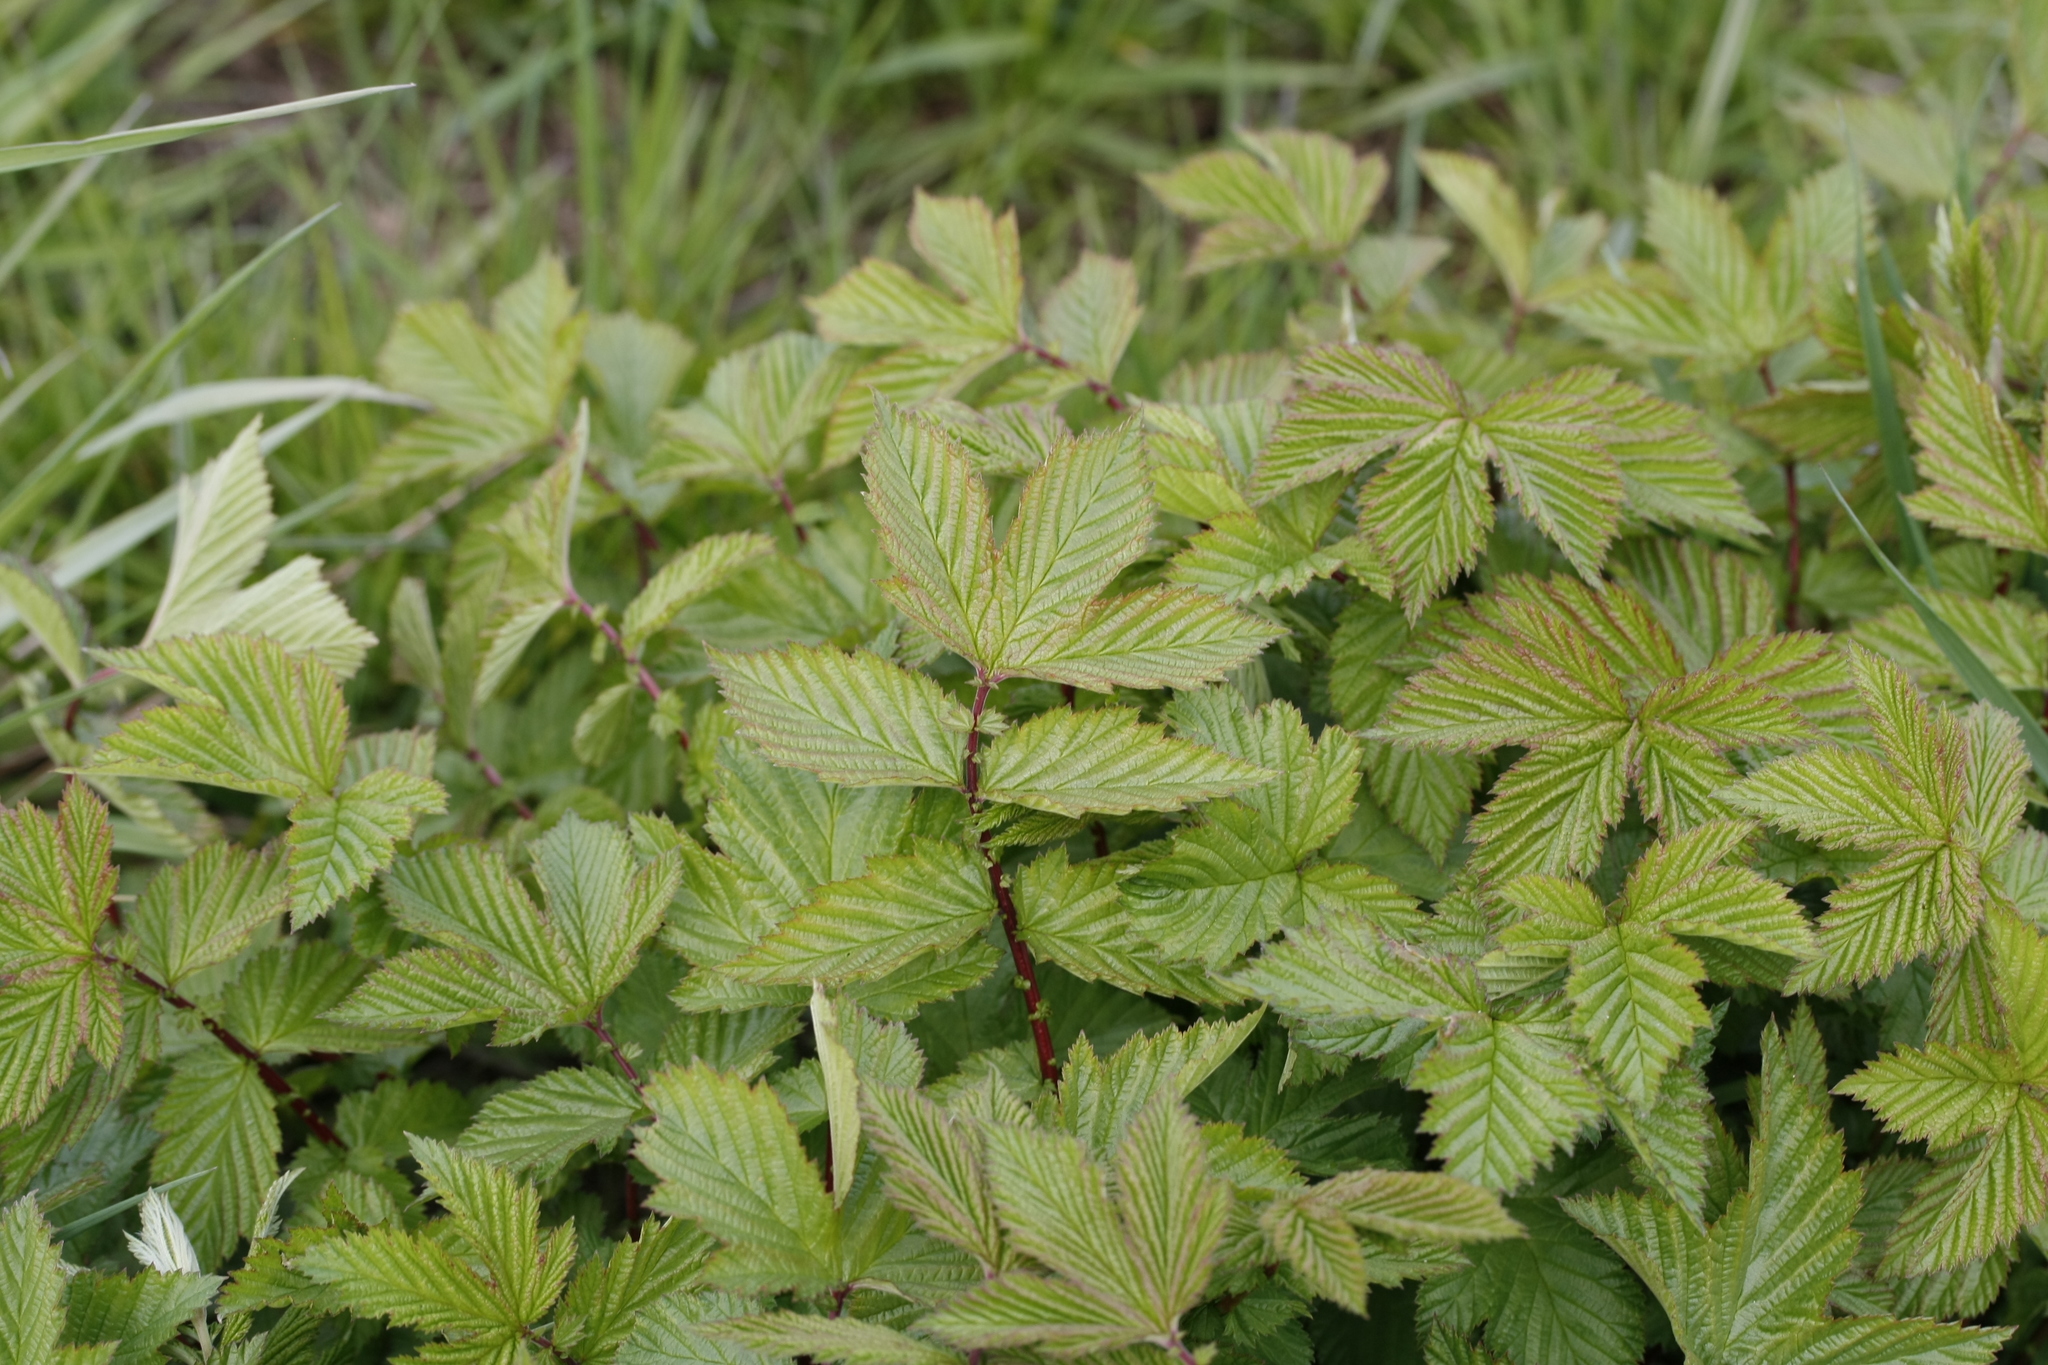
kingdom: Plantae
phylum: Tracheophyta
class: Magnoliopsida
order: Rosales
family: Rosaceae
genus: Filipendula
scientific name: Filipendula ulmaria
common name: Meadowsweet
